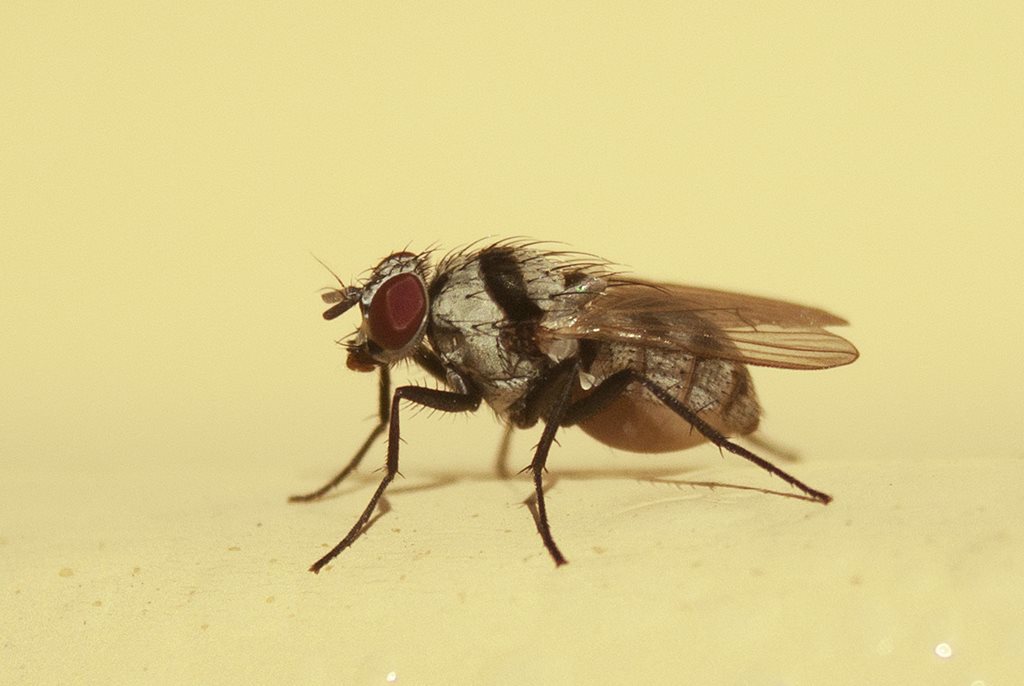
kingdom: Animalia
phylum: Arthropoda
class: Insecta
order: Diptera
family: Anthomyiidae
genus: Anthomyia
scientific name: Anthomyia silvestris
